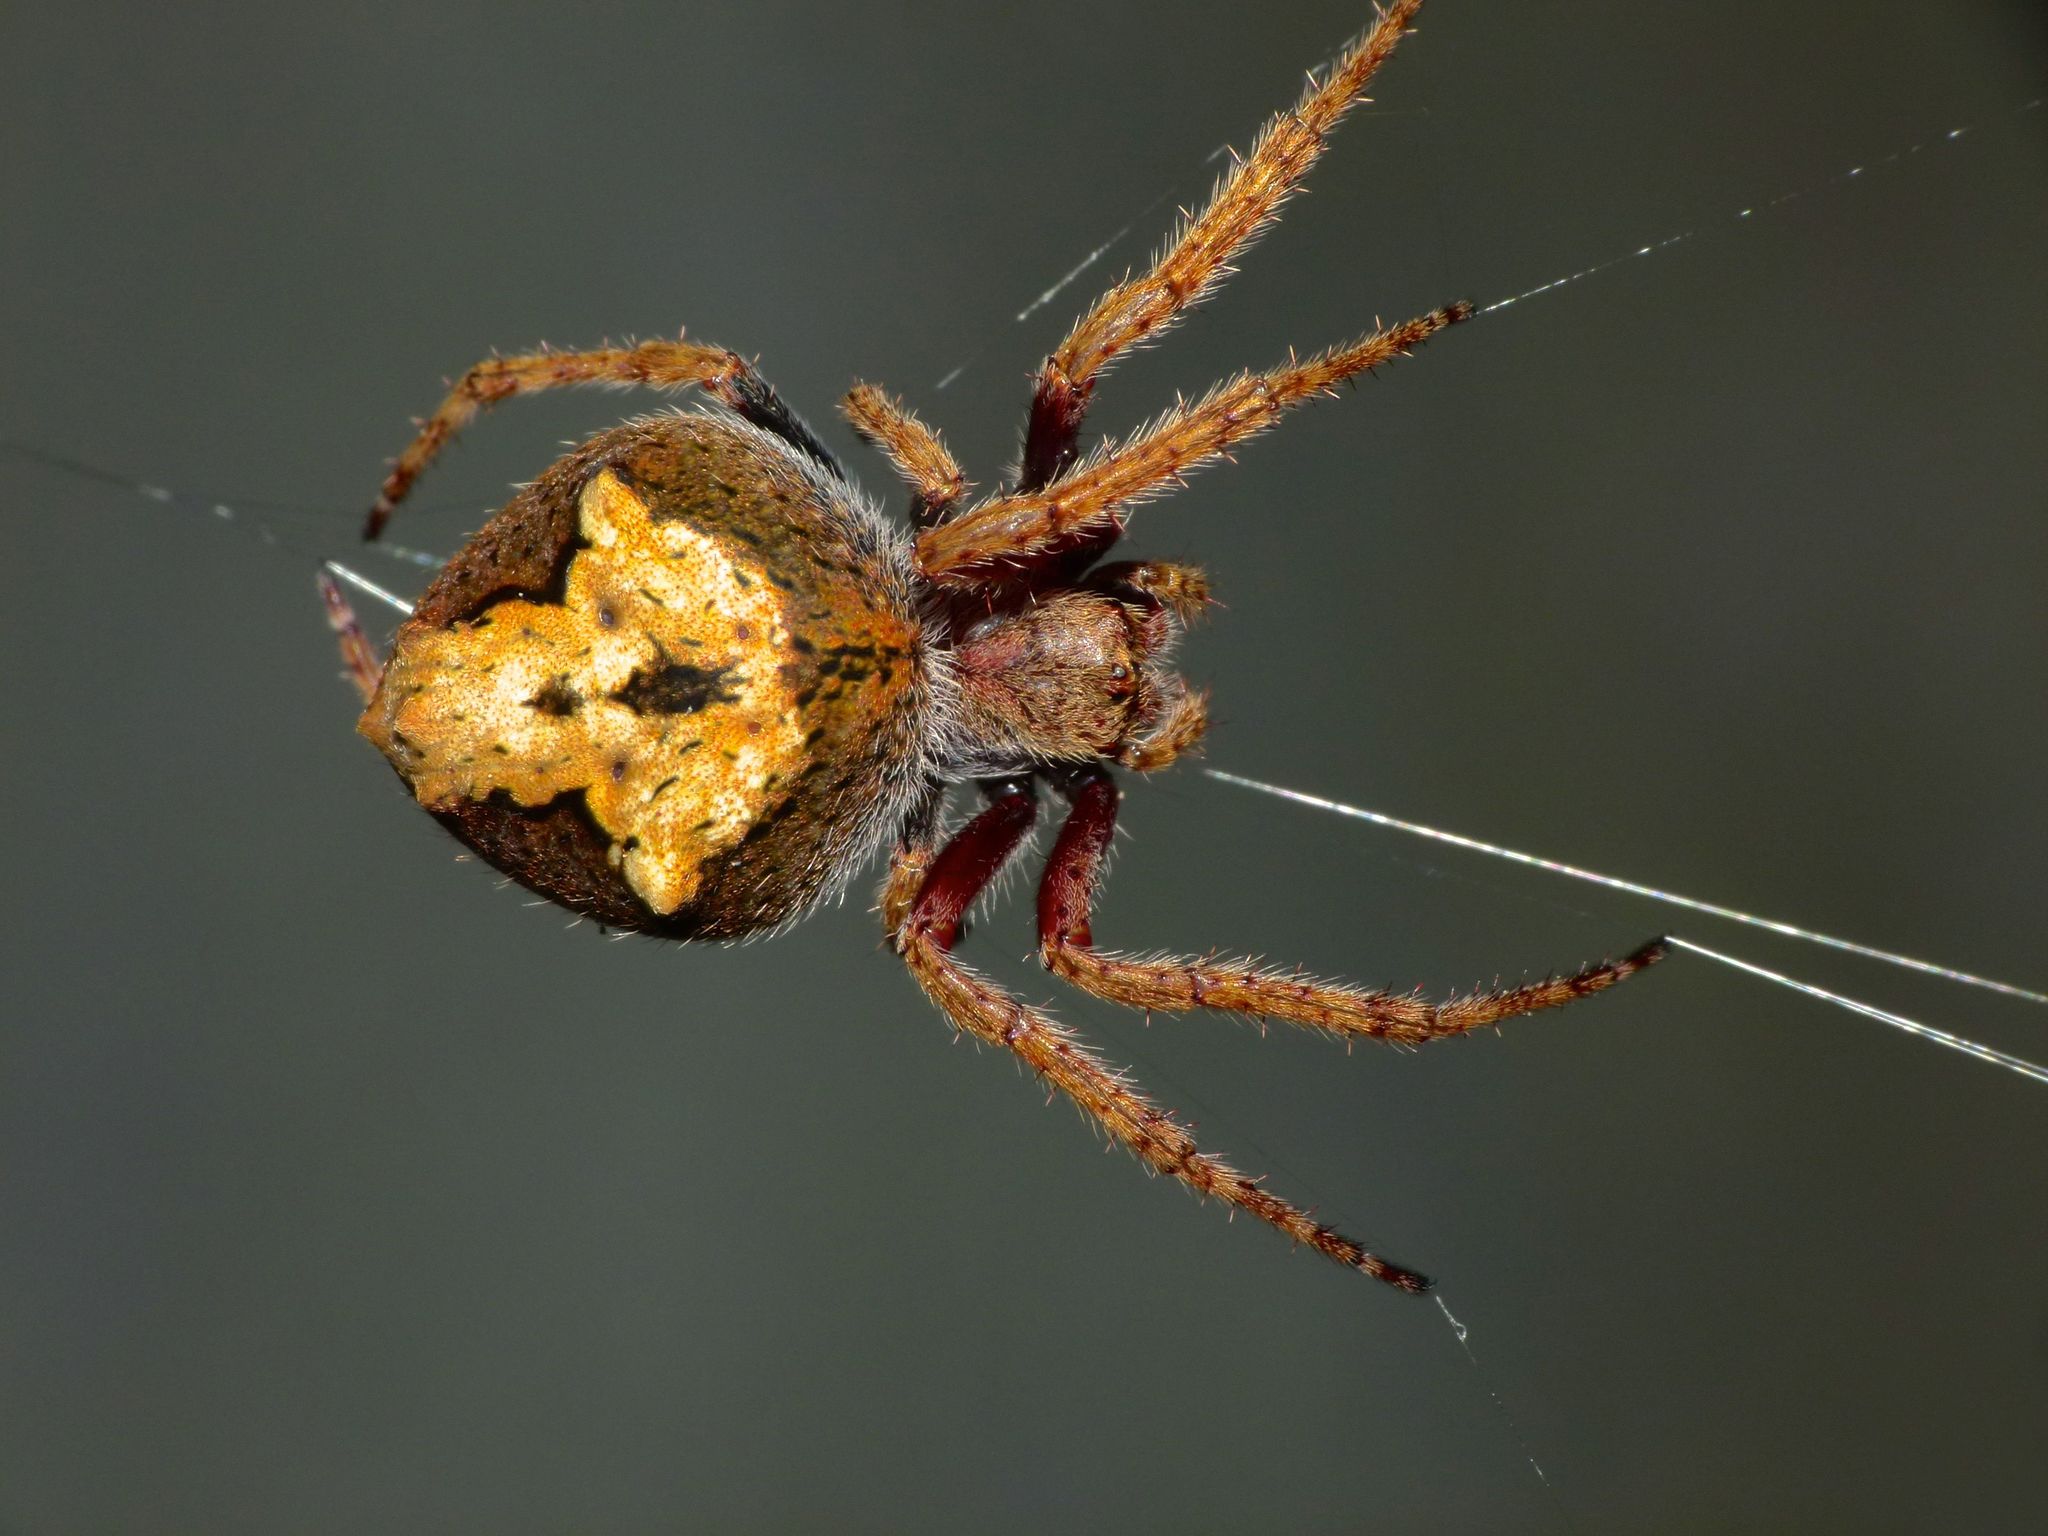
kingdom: Animalia
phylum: Arthropoda
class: Arachnida
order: Araneae
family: Araneidae
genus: Eriophora
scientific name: Eriophora pustulosa
